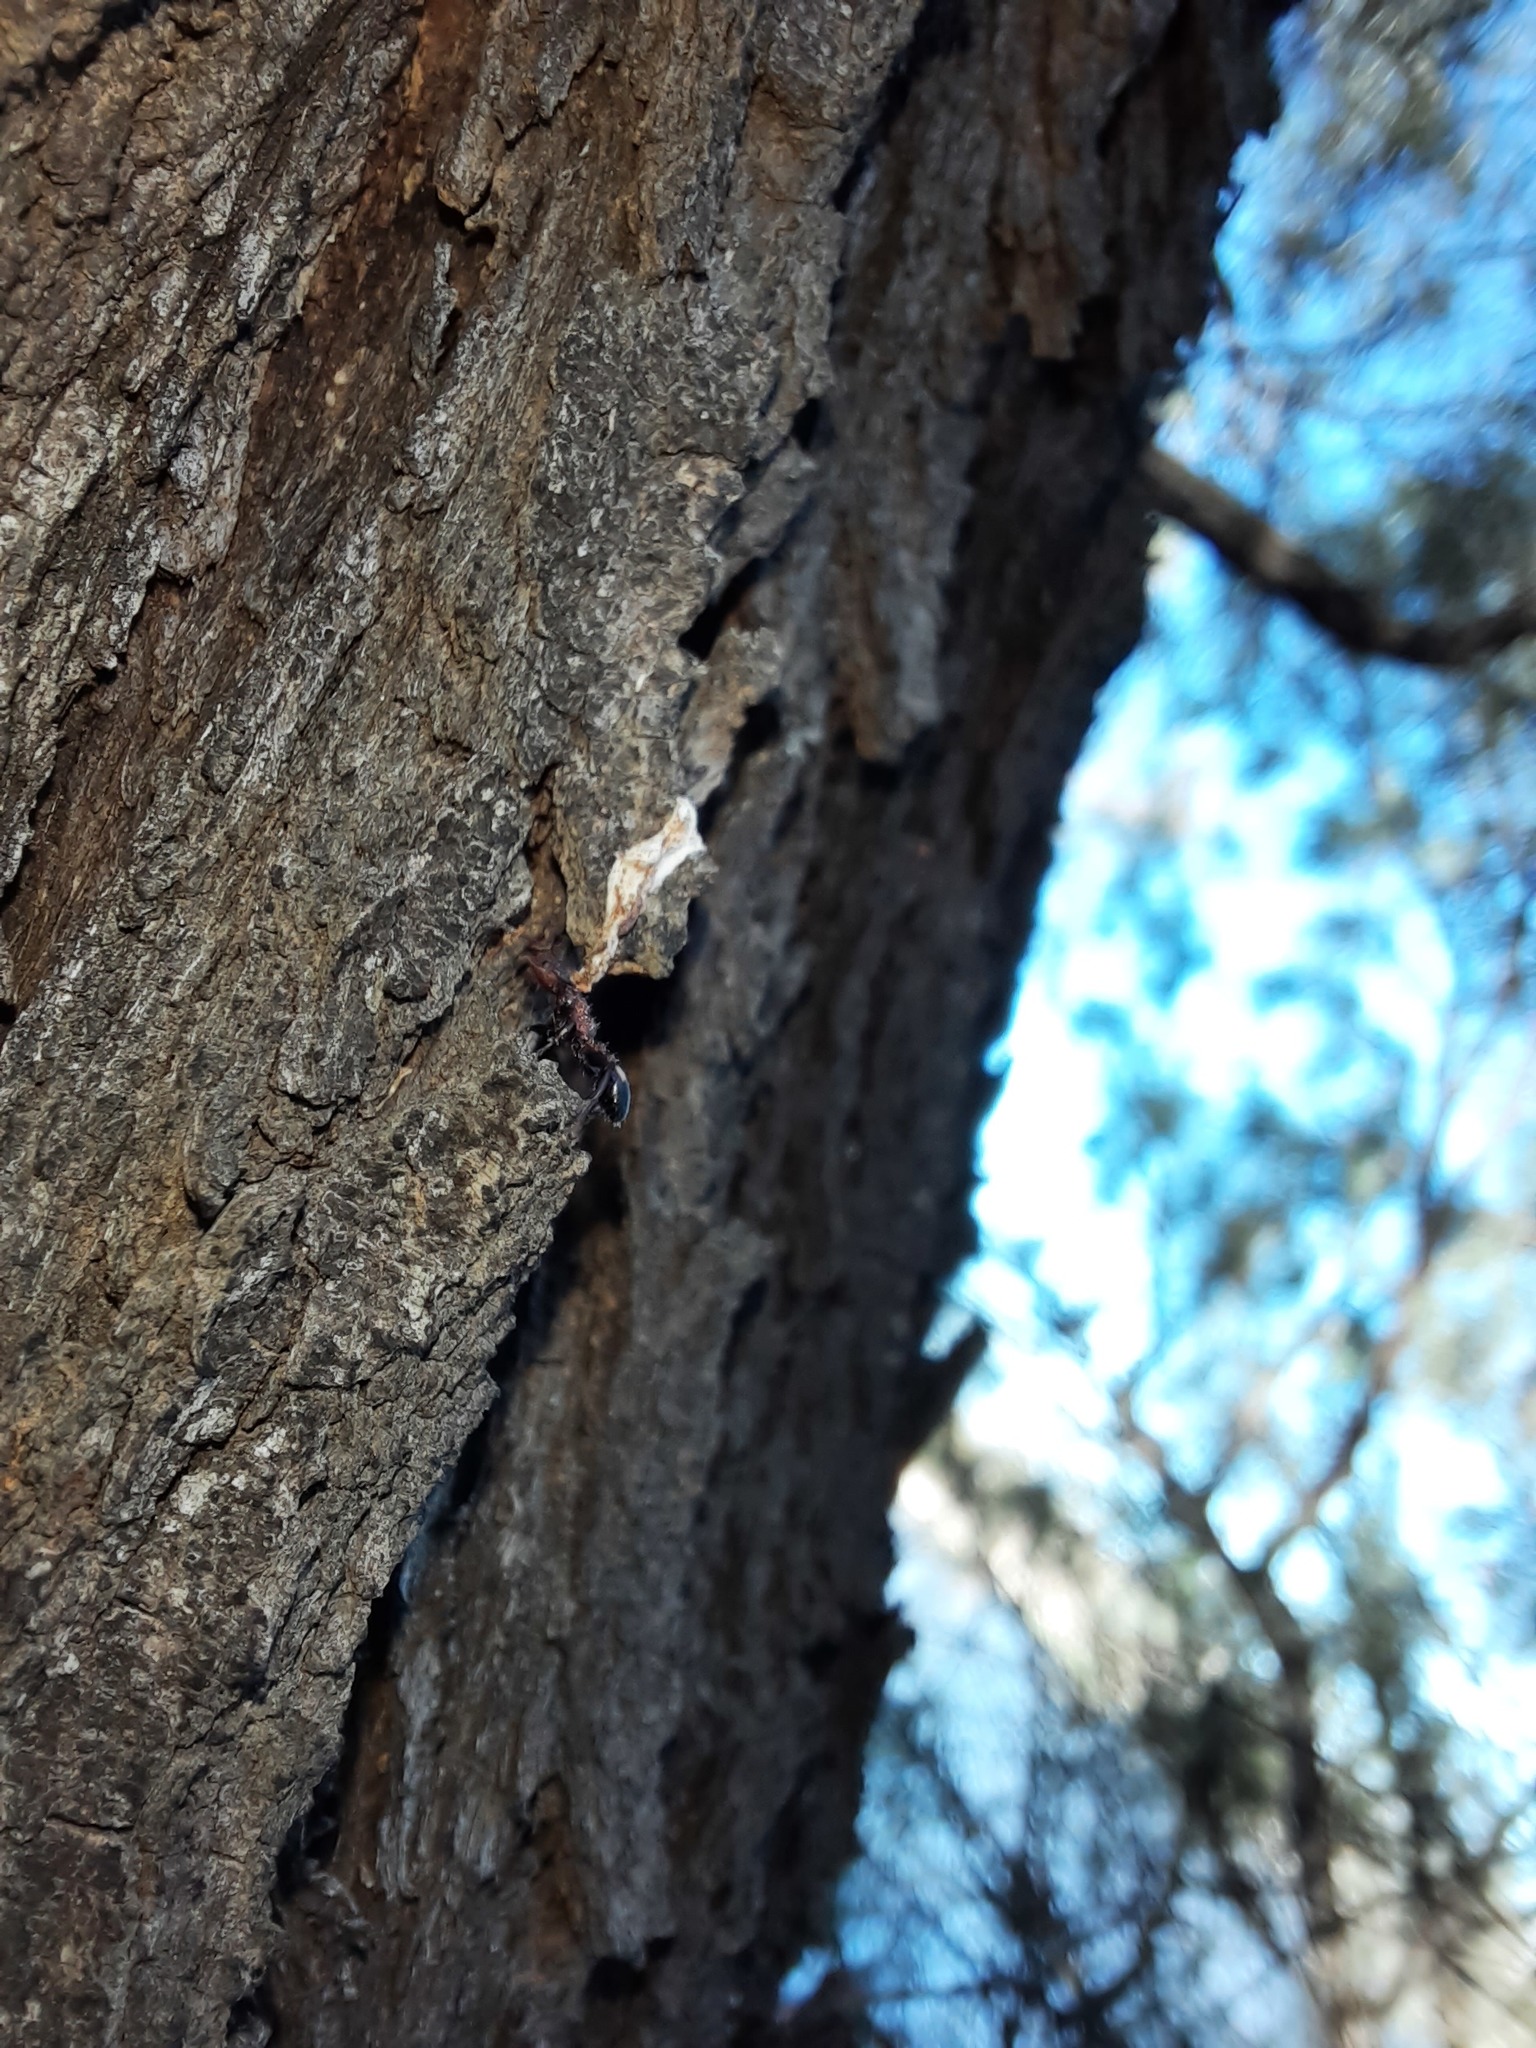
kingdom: Animalia
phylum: Arthropoda
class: Insecta
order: Hymenoptera
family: Formicidae
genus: Podomyrma
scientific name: Podomyrma adelaidae
